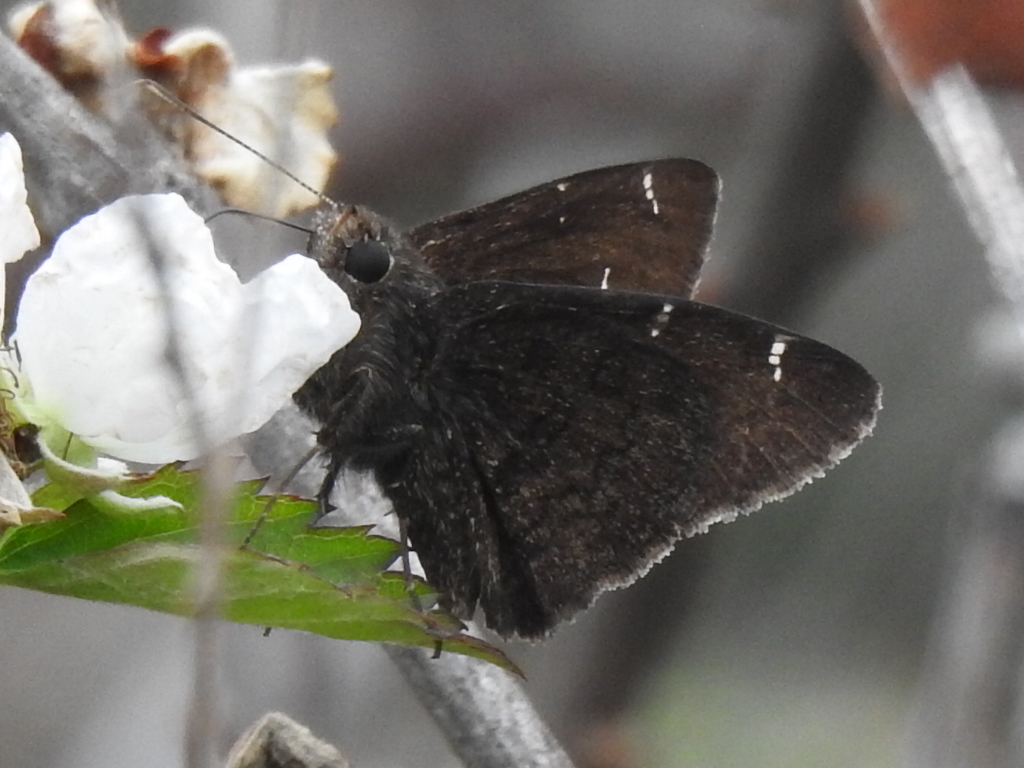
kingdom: Animalia
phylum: Arthropoda
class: Insecta
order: Lepidoptera
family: Hesperiidae
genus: Thorybes
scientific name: Thorybes pylades
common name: Northern cloudywing
